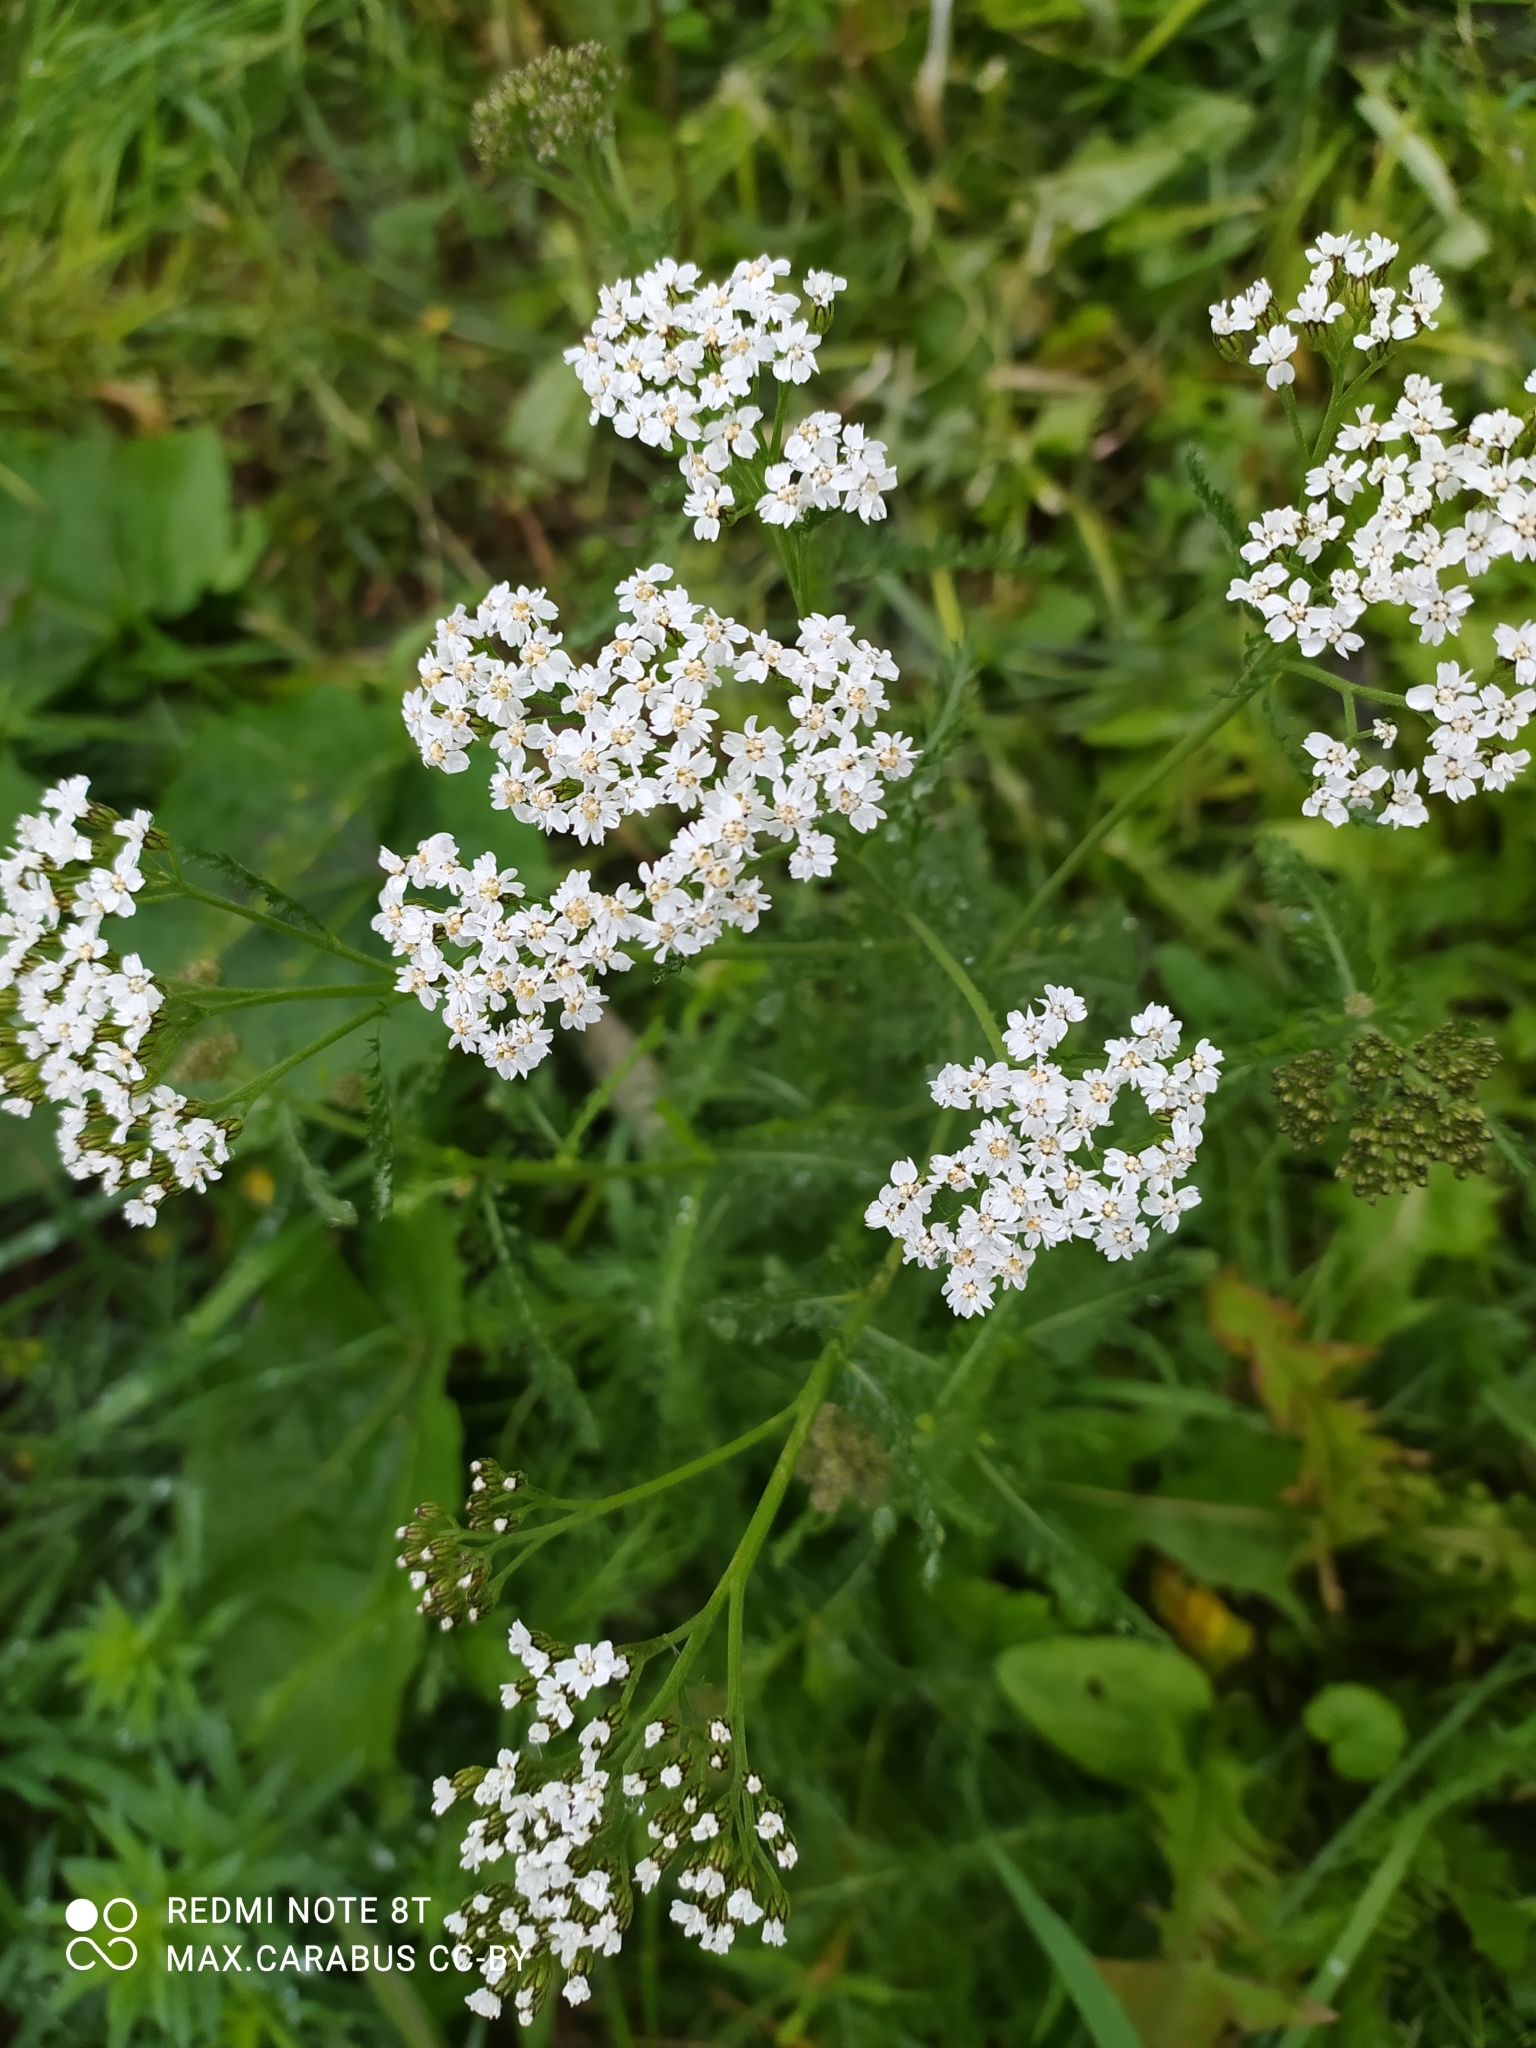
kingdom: Plantae
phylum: Tracheophyta
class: Magnoliopsida
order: Asterales
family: Asteraceae
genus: Achillea
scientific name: Achillea millefolium
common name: Yarrow
